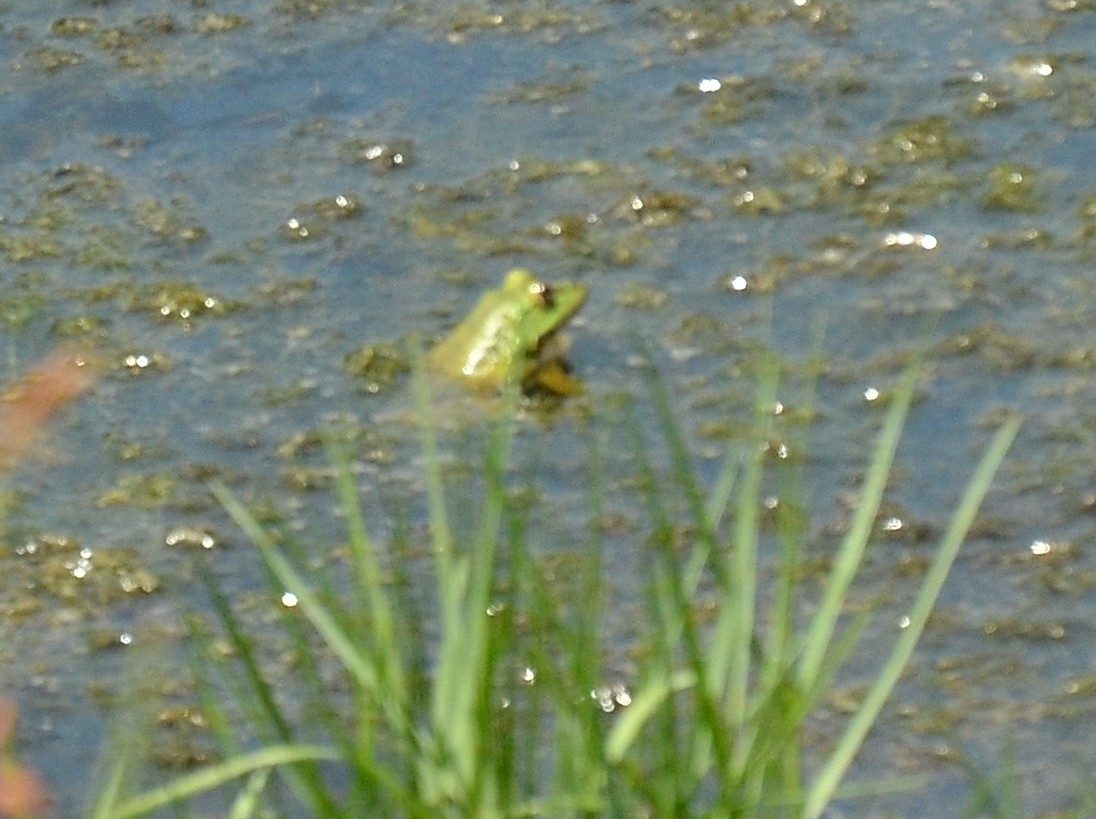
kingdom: Animalia
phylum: Chordata
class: Amphibia
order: Anura
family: Dicroglossidae
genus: Euphlyctis
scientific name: Euphlyctis karaavali
